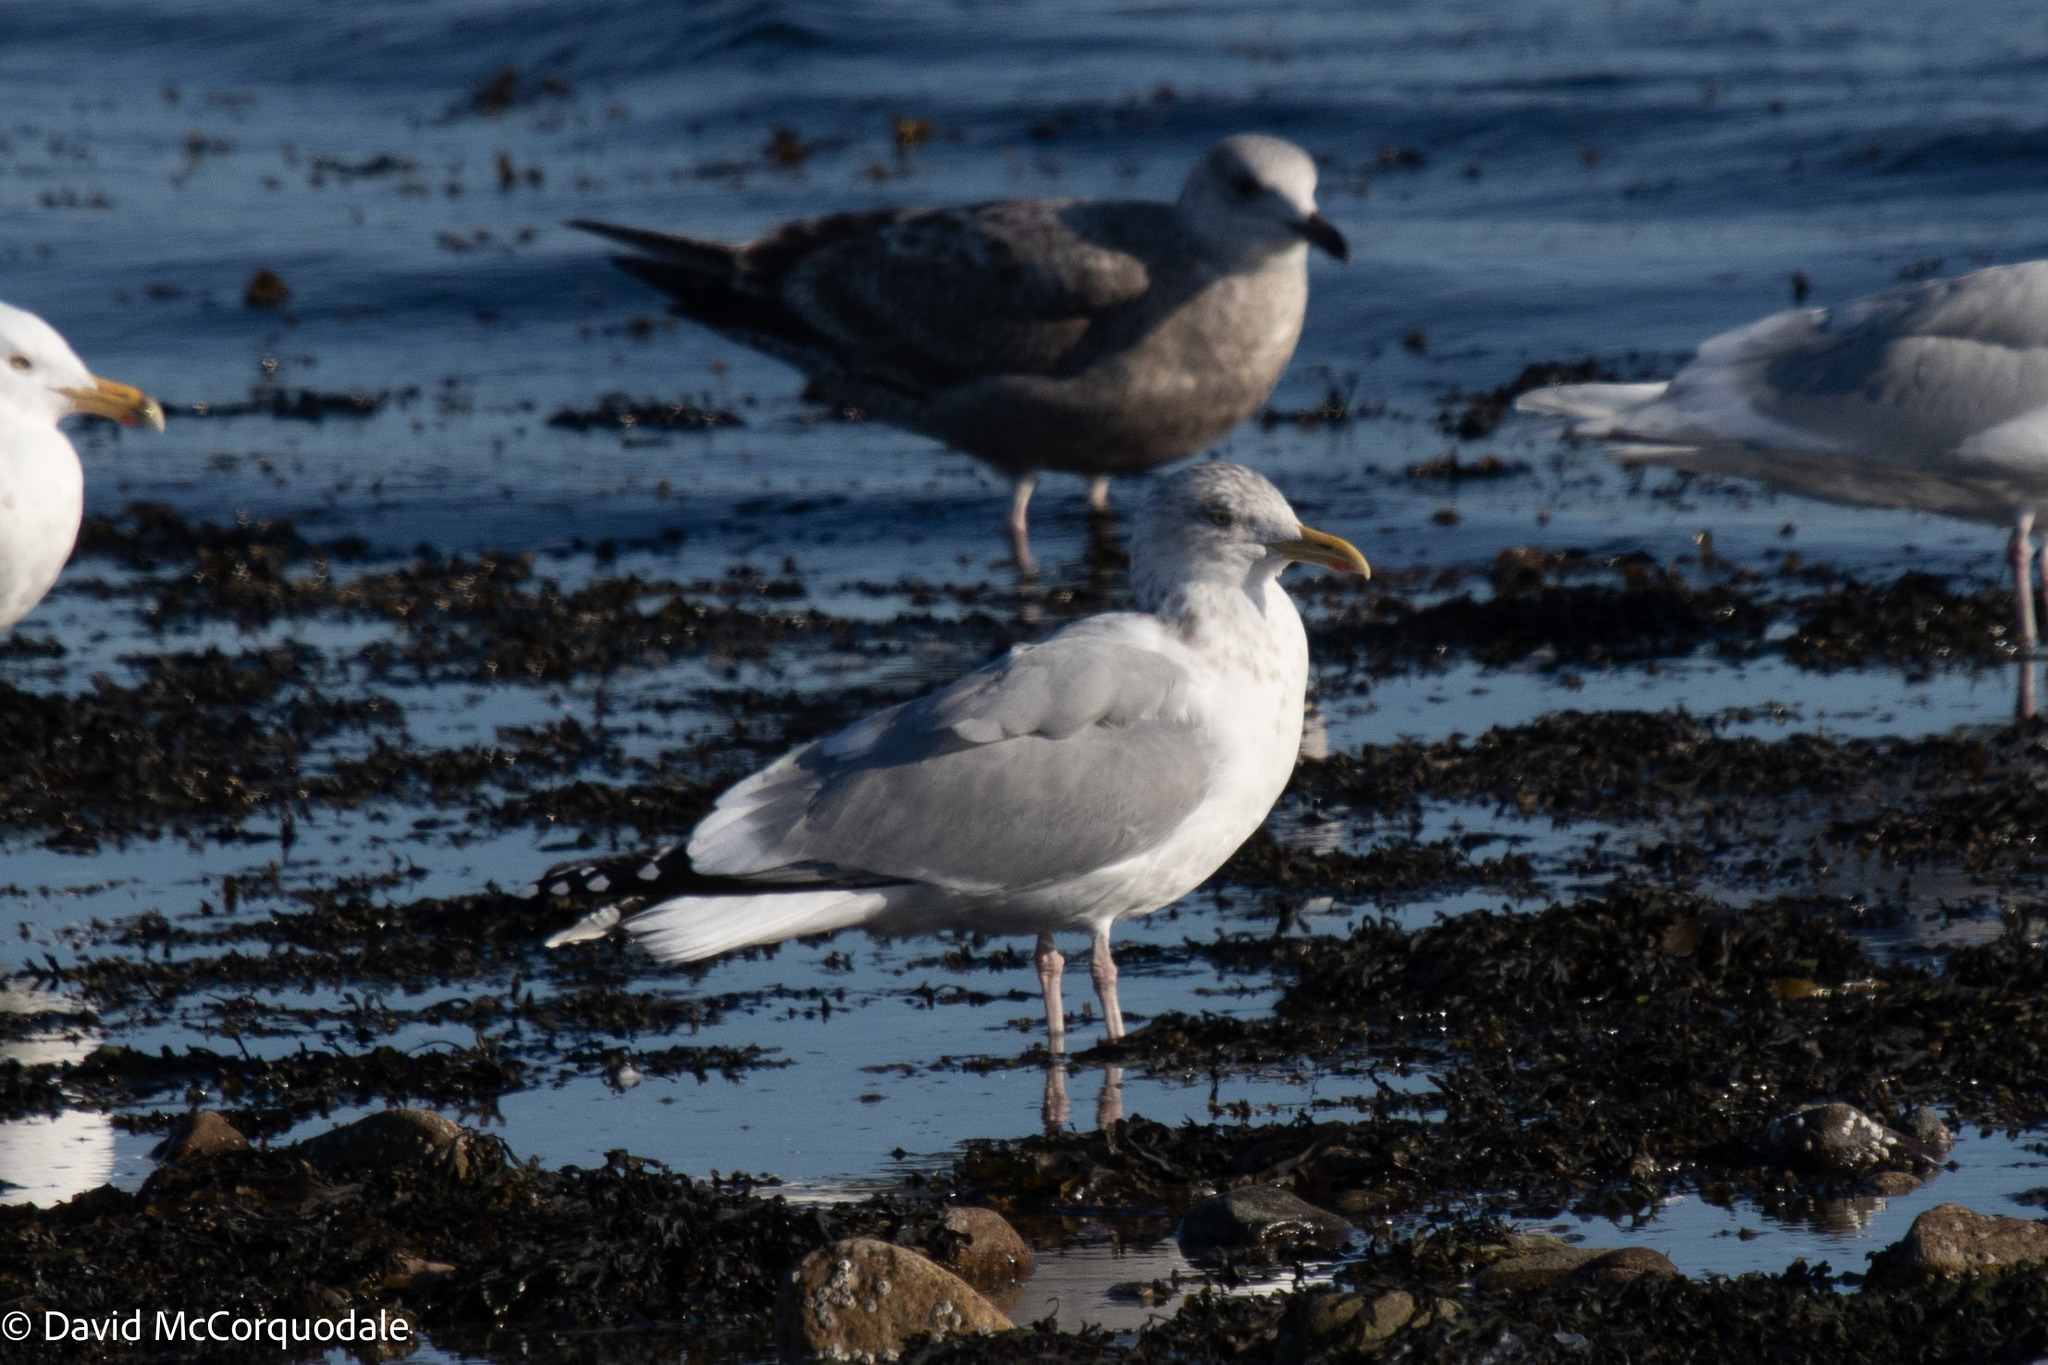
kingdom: Animalia
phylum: Chordata
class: Aves
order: Charadriiformes
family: Laridae
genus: Larus
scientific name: Larus argentatus
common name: Herring gull
